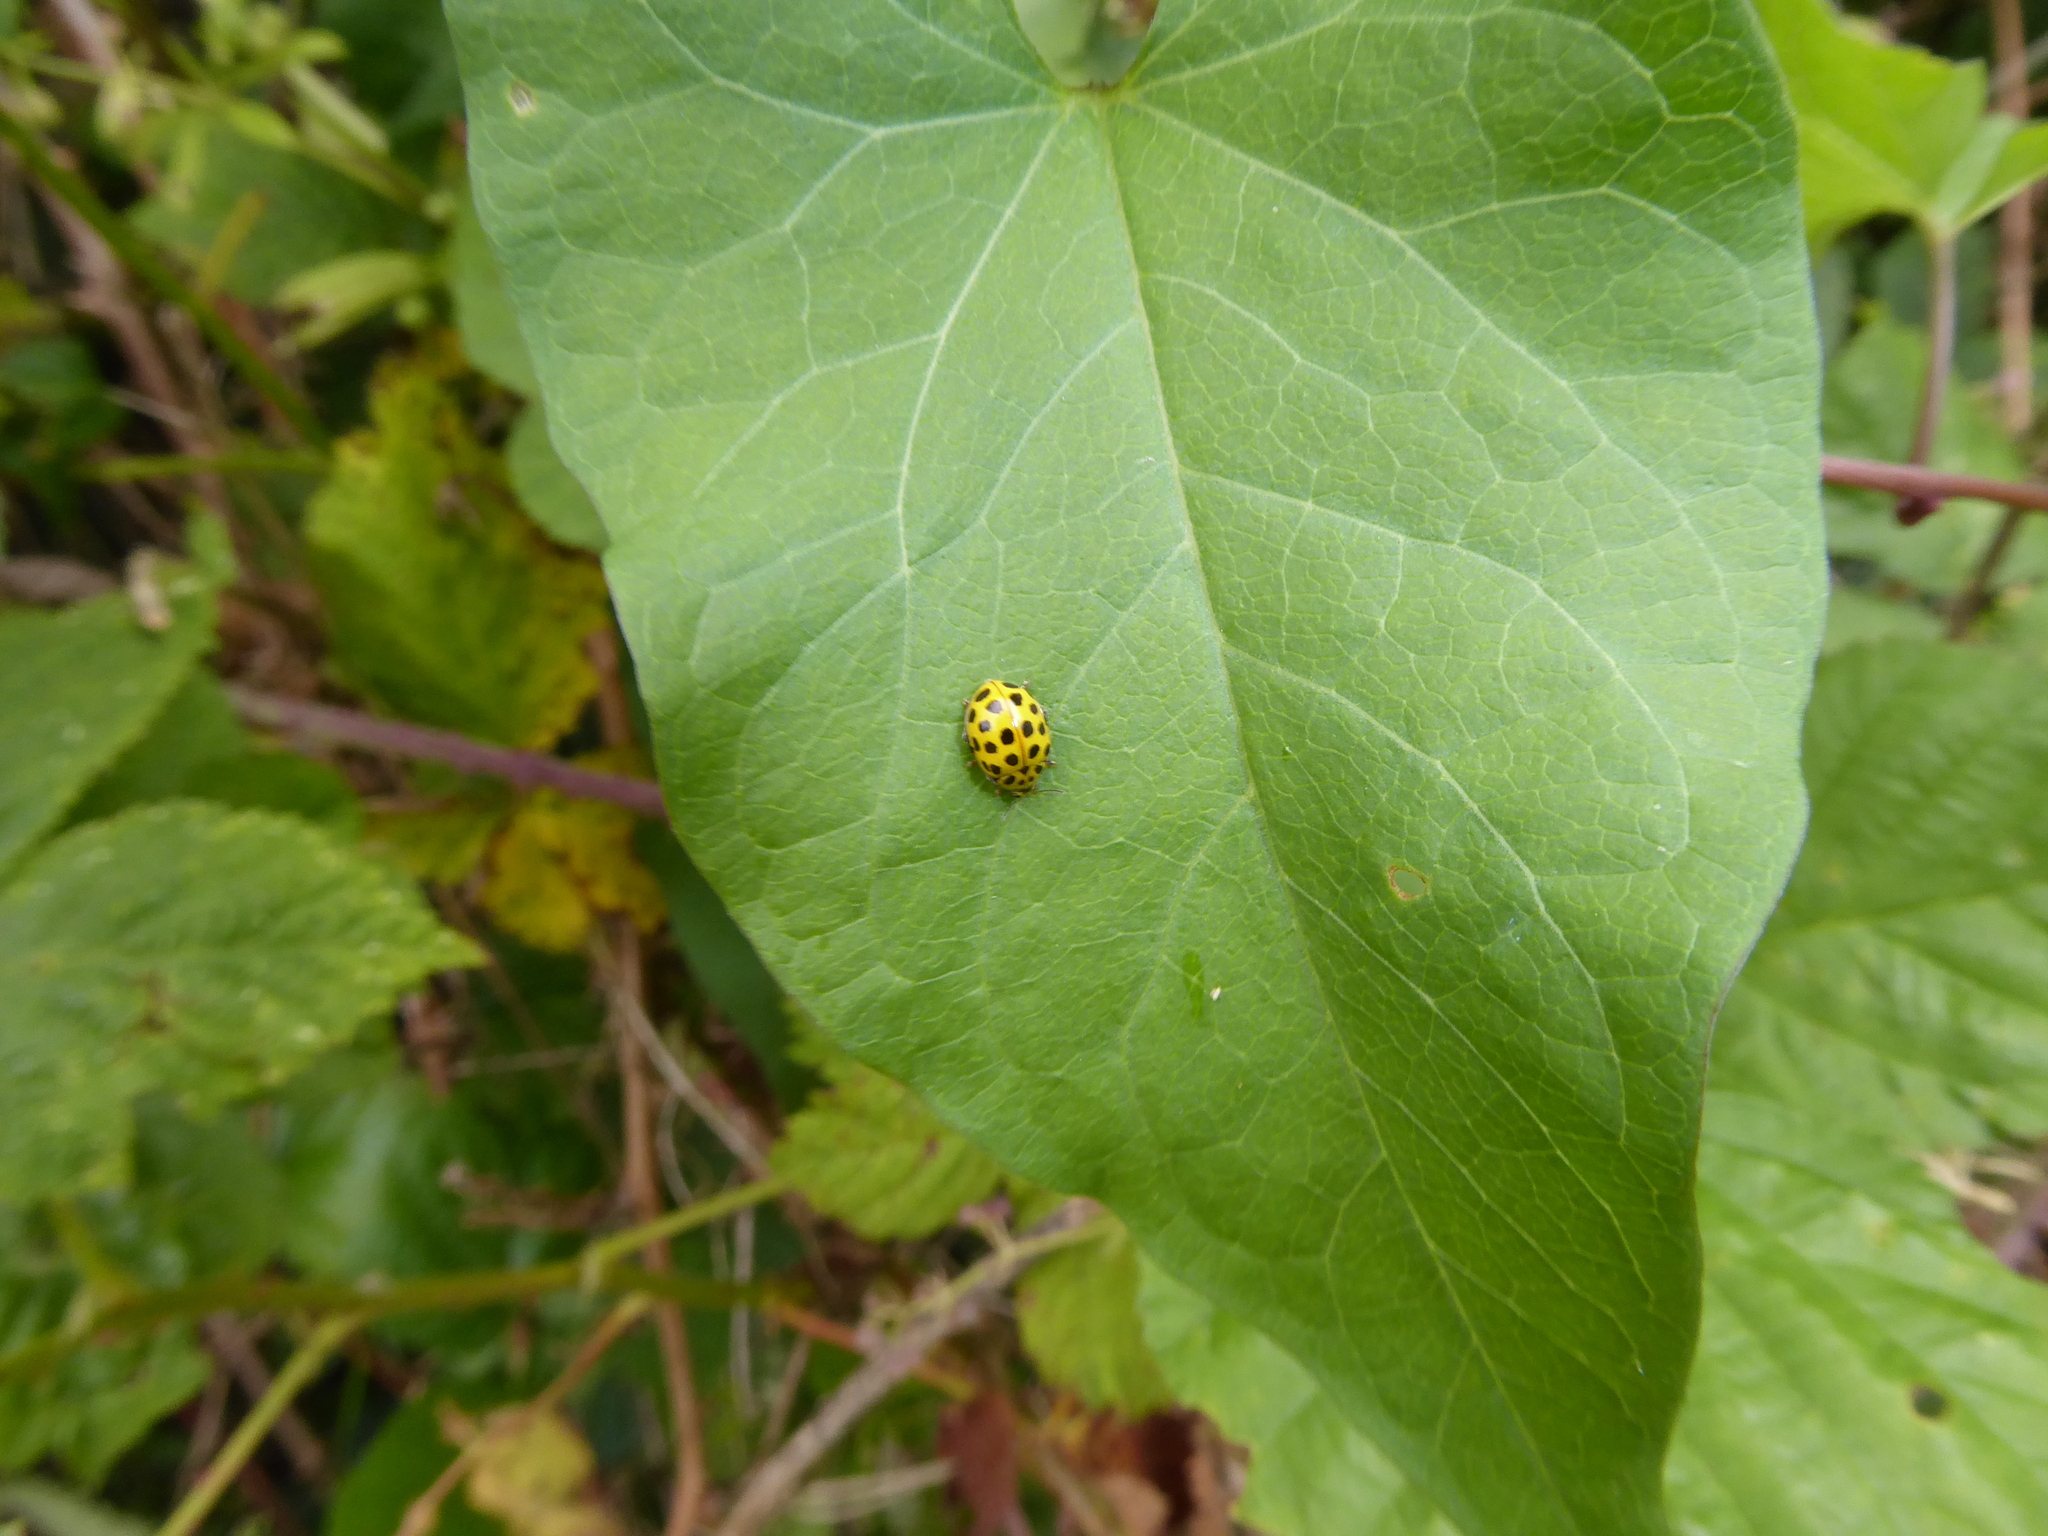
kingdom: Animalia
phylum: Arthropoda
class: Insecta
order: Coleoptera
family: Coccinellidae
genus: Psyllobora
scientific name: Psyllobora vigintiduopunctata
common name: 22-spot ladybird
